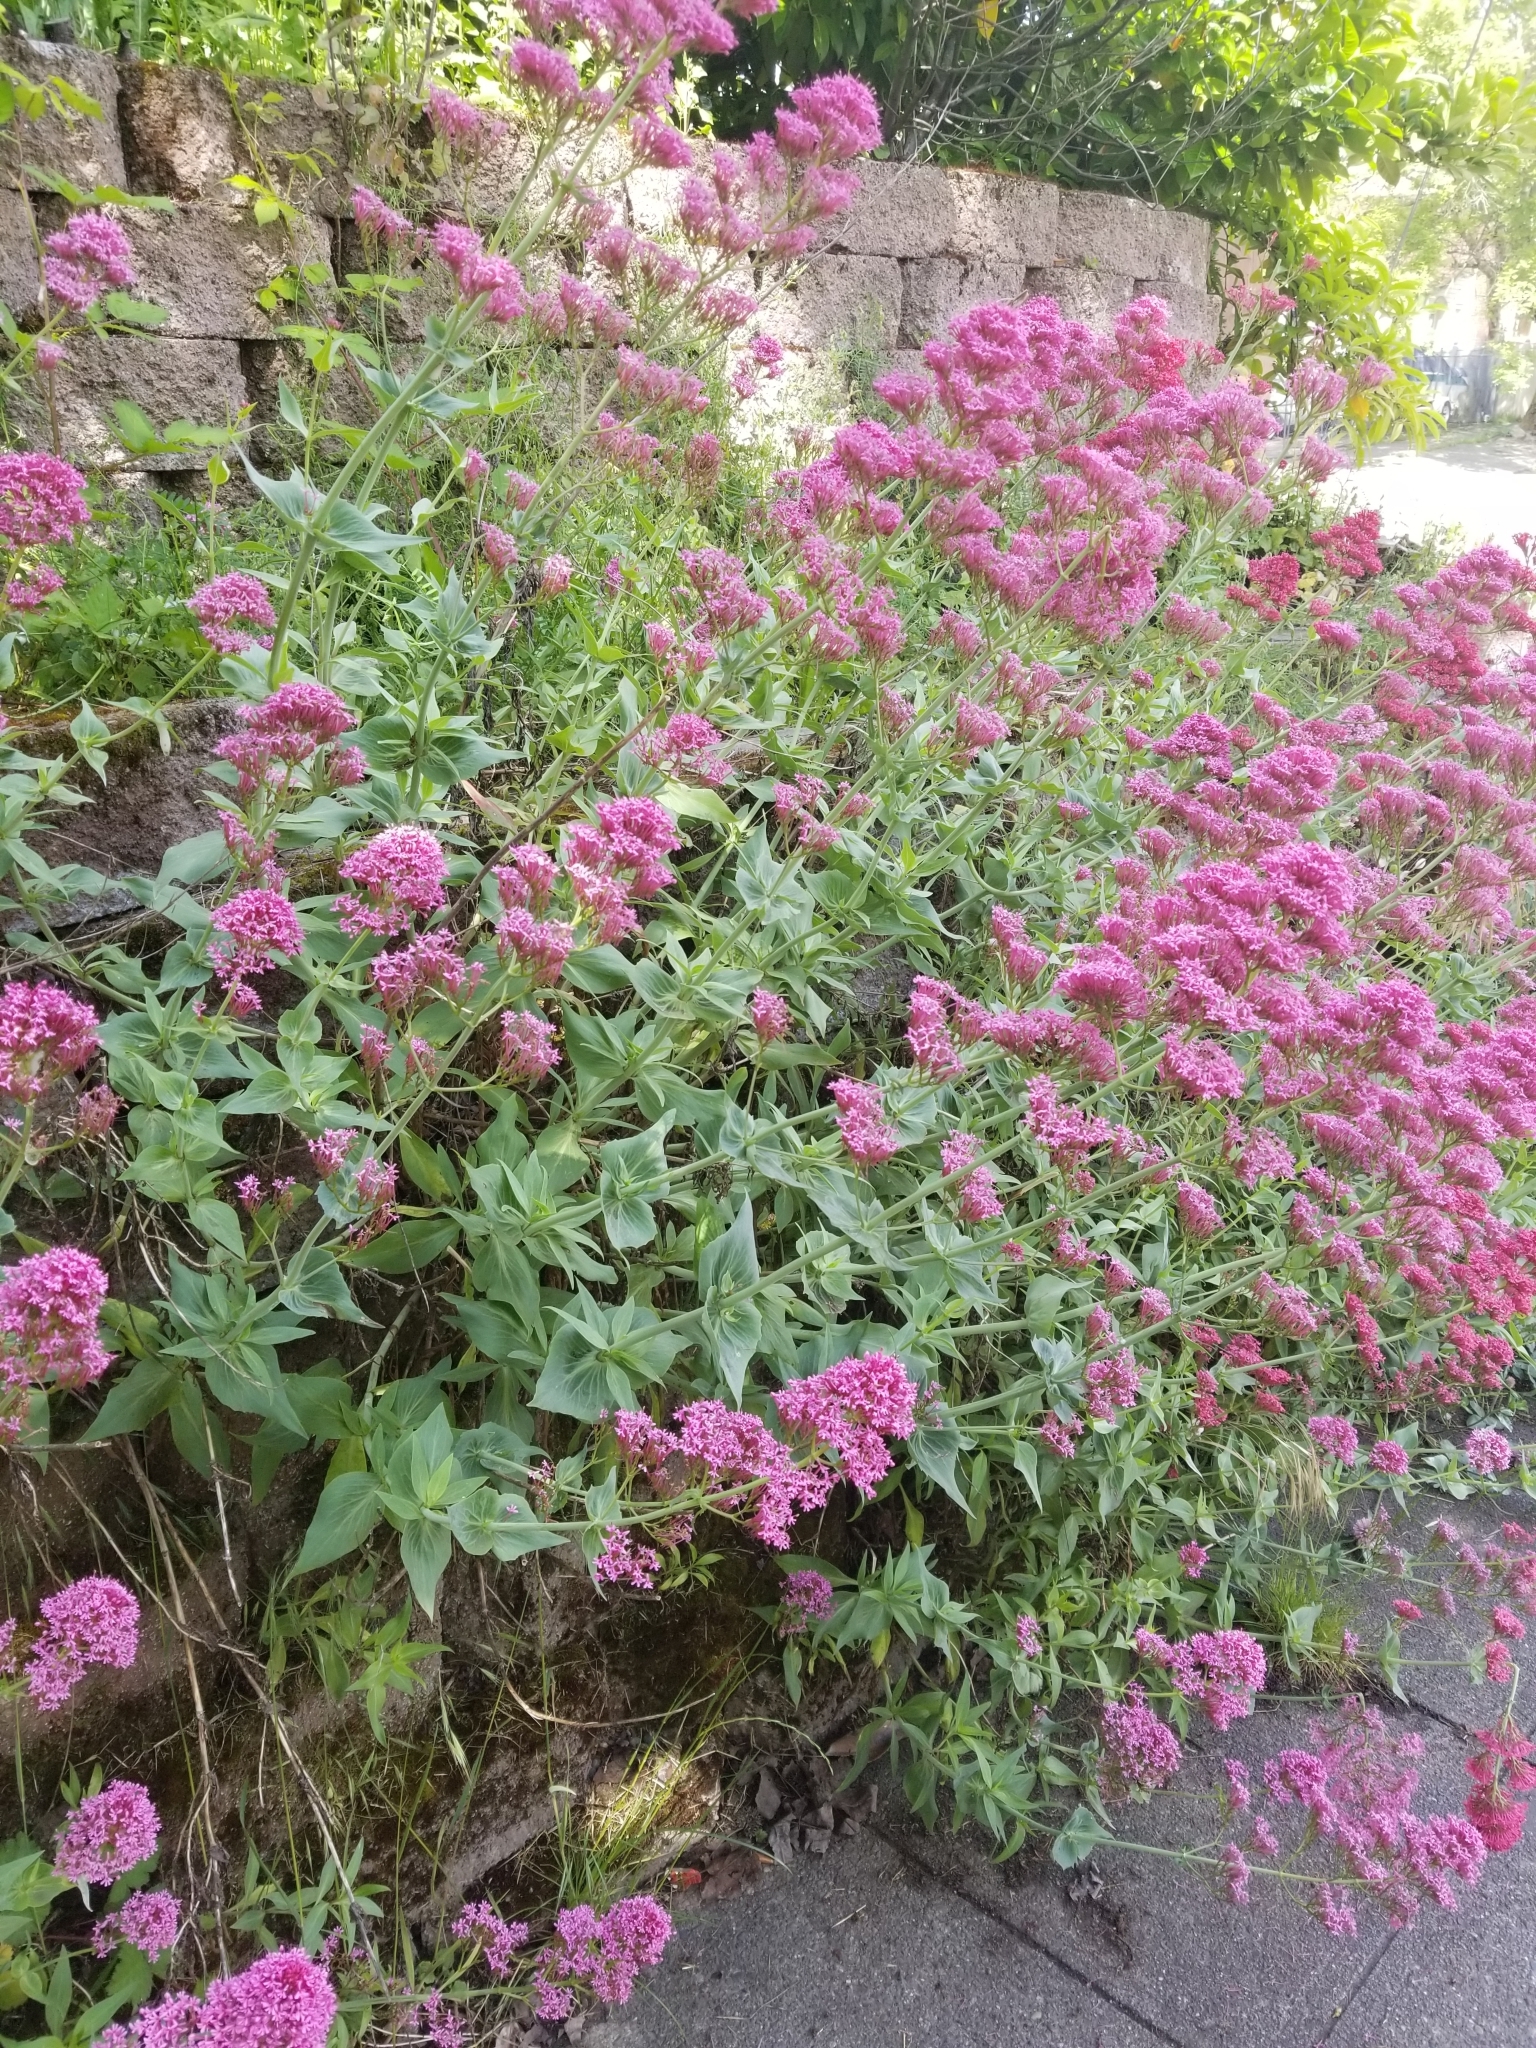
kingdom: Plantae
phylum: Tracheophyta
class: Magnoliopsida
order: Dipsacales
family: Caprifoliaceae
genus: Centranthus
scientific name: Centranthus ruber
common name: Red valerian
